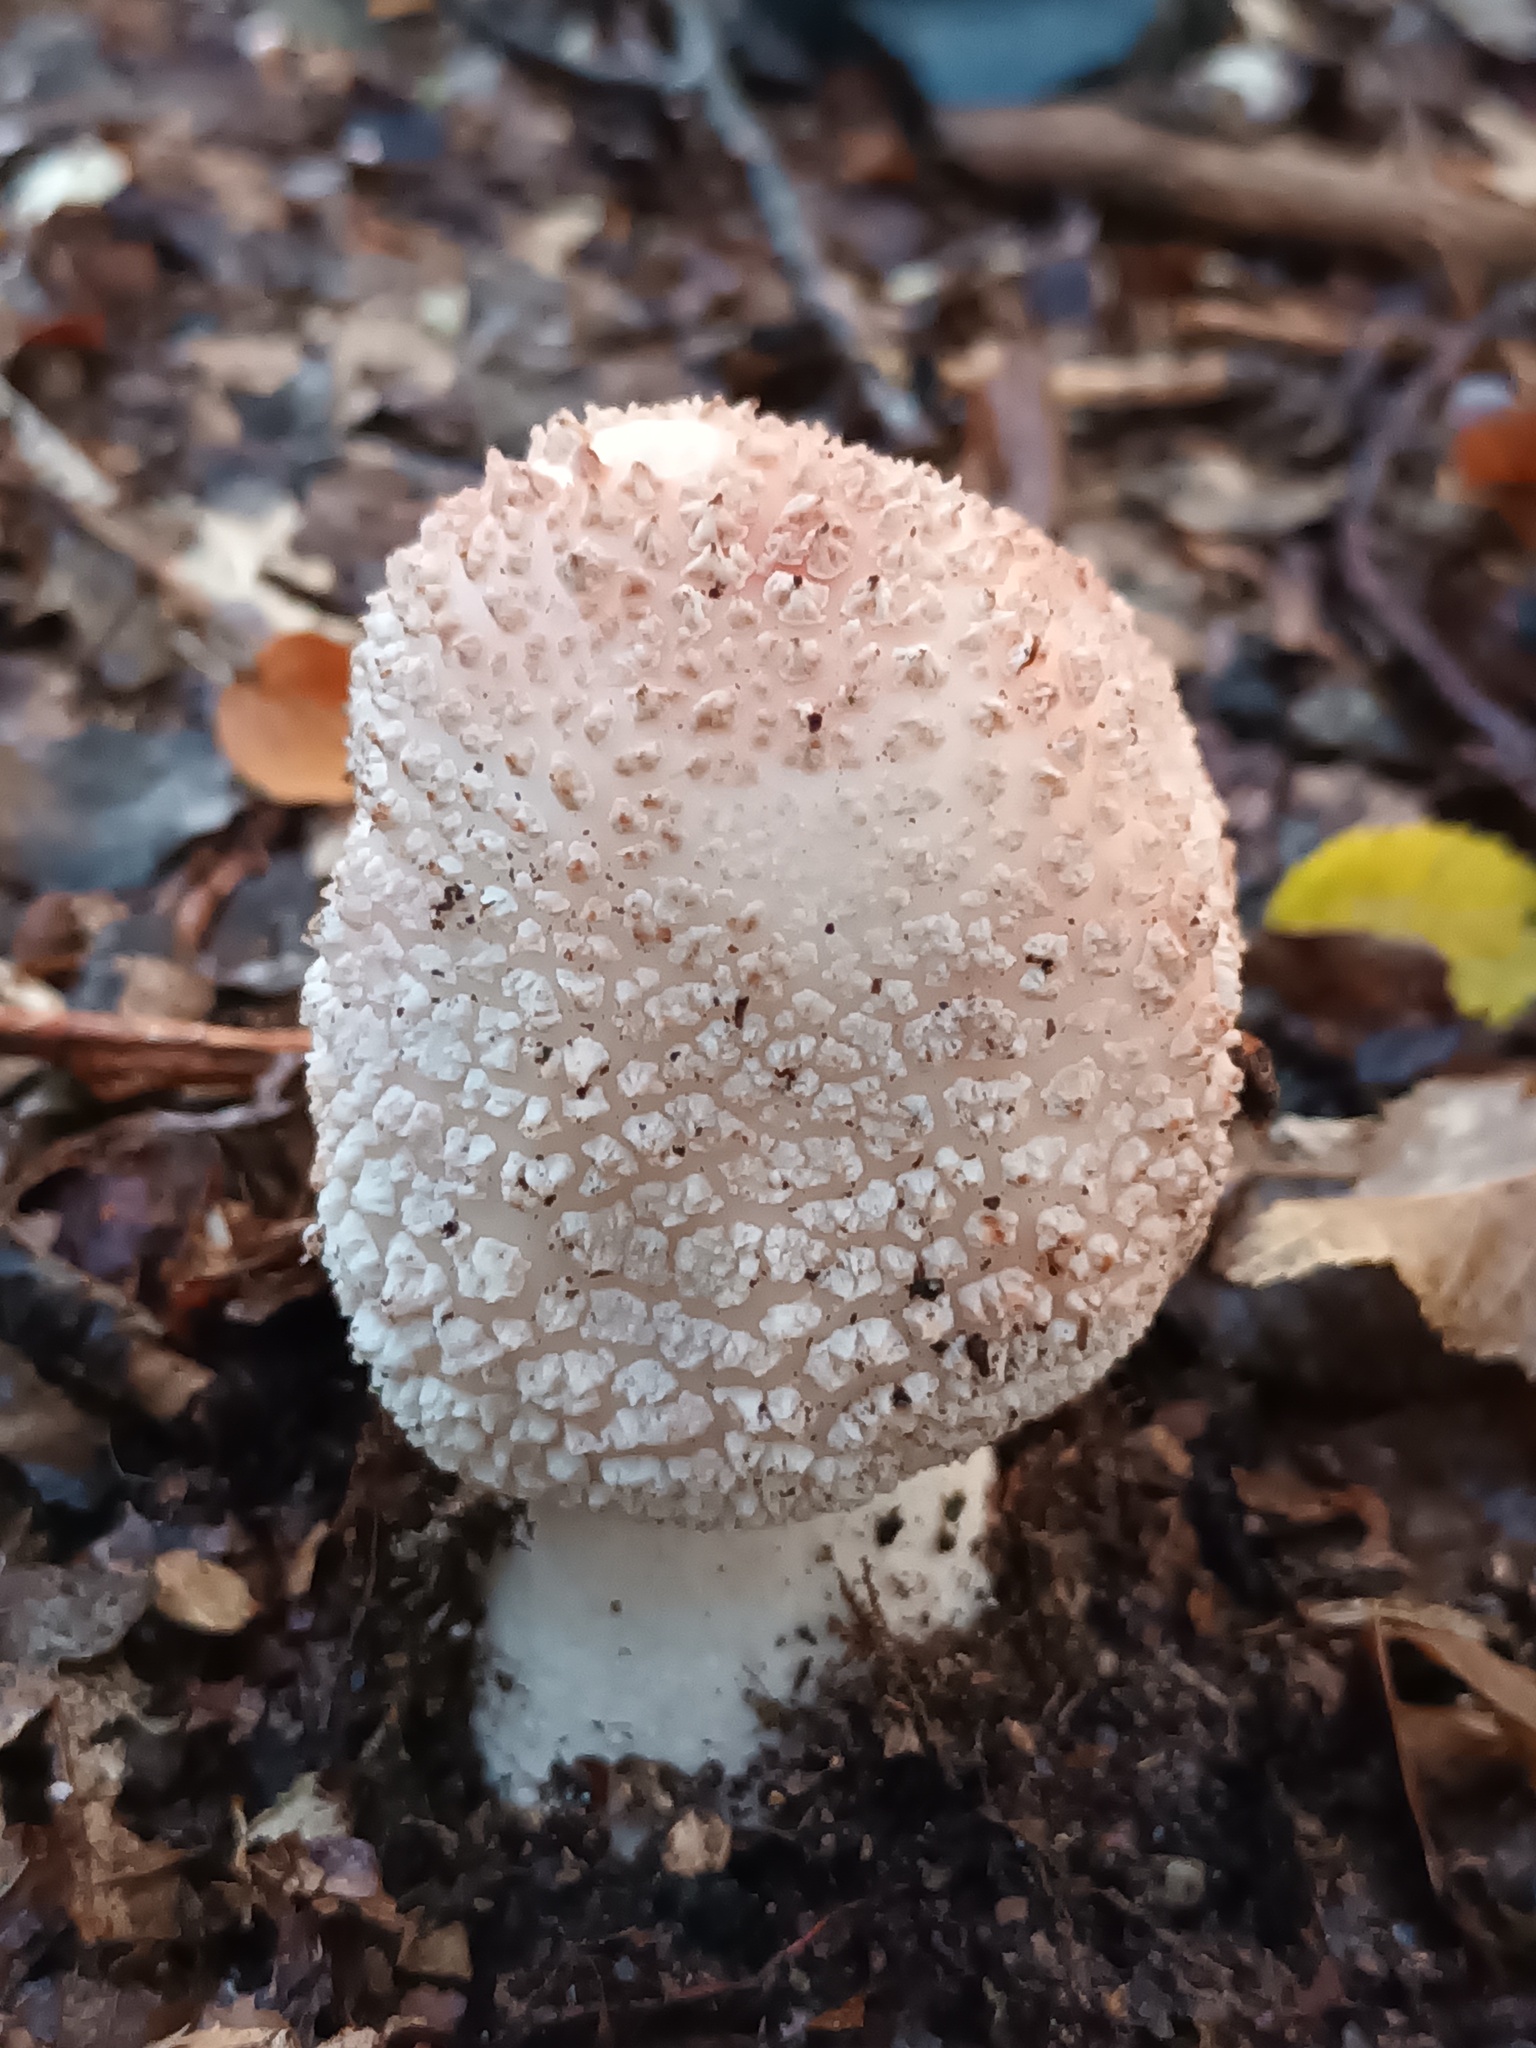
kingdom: Fungi
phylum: Basidiomycota
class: Agaricomycetes
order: Agaricales
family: Amanitaceae
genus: Amanita
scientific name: Amanita rubescens
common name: Blusher
